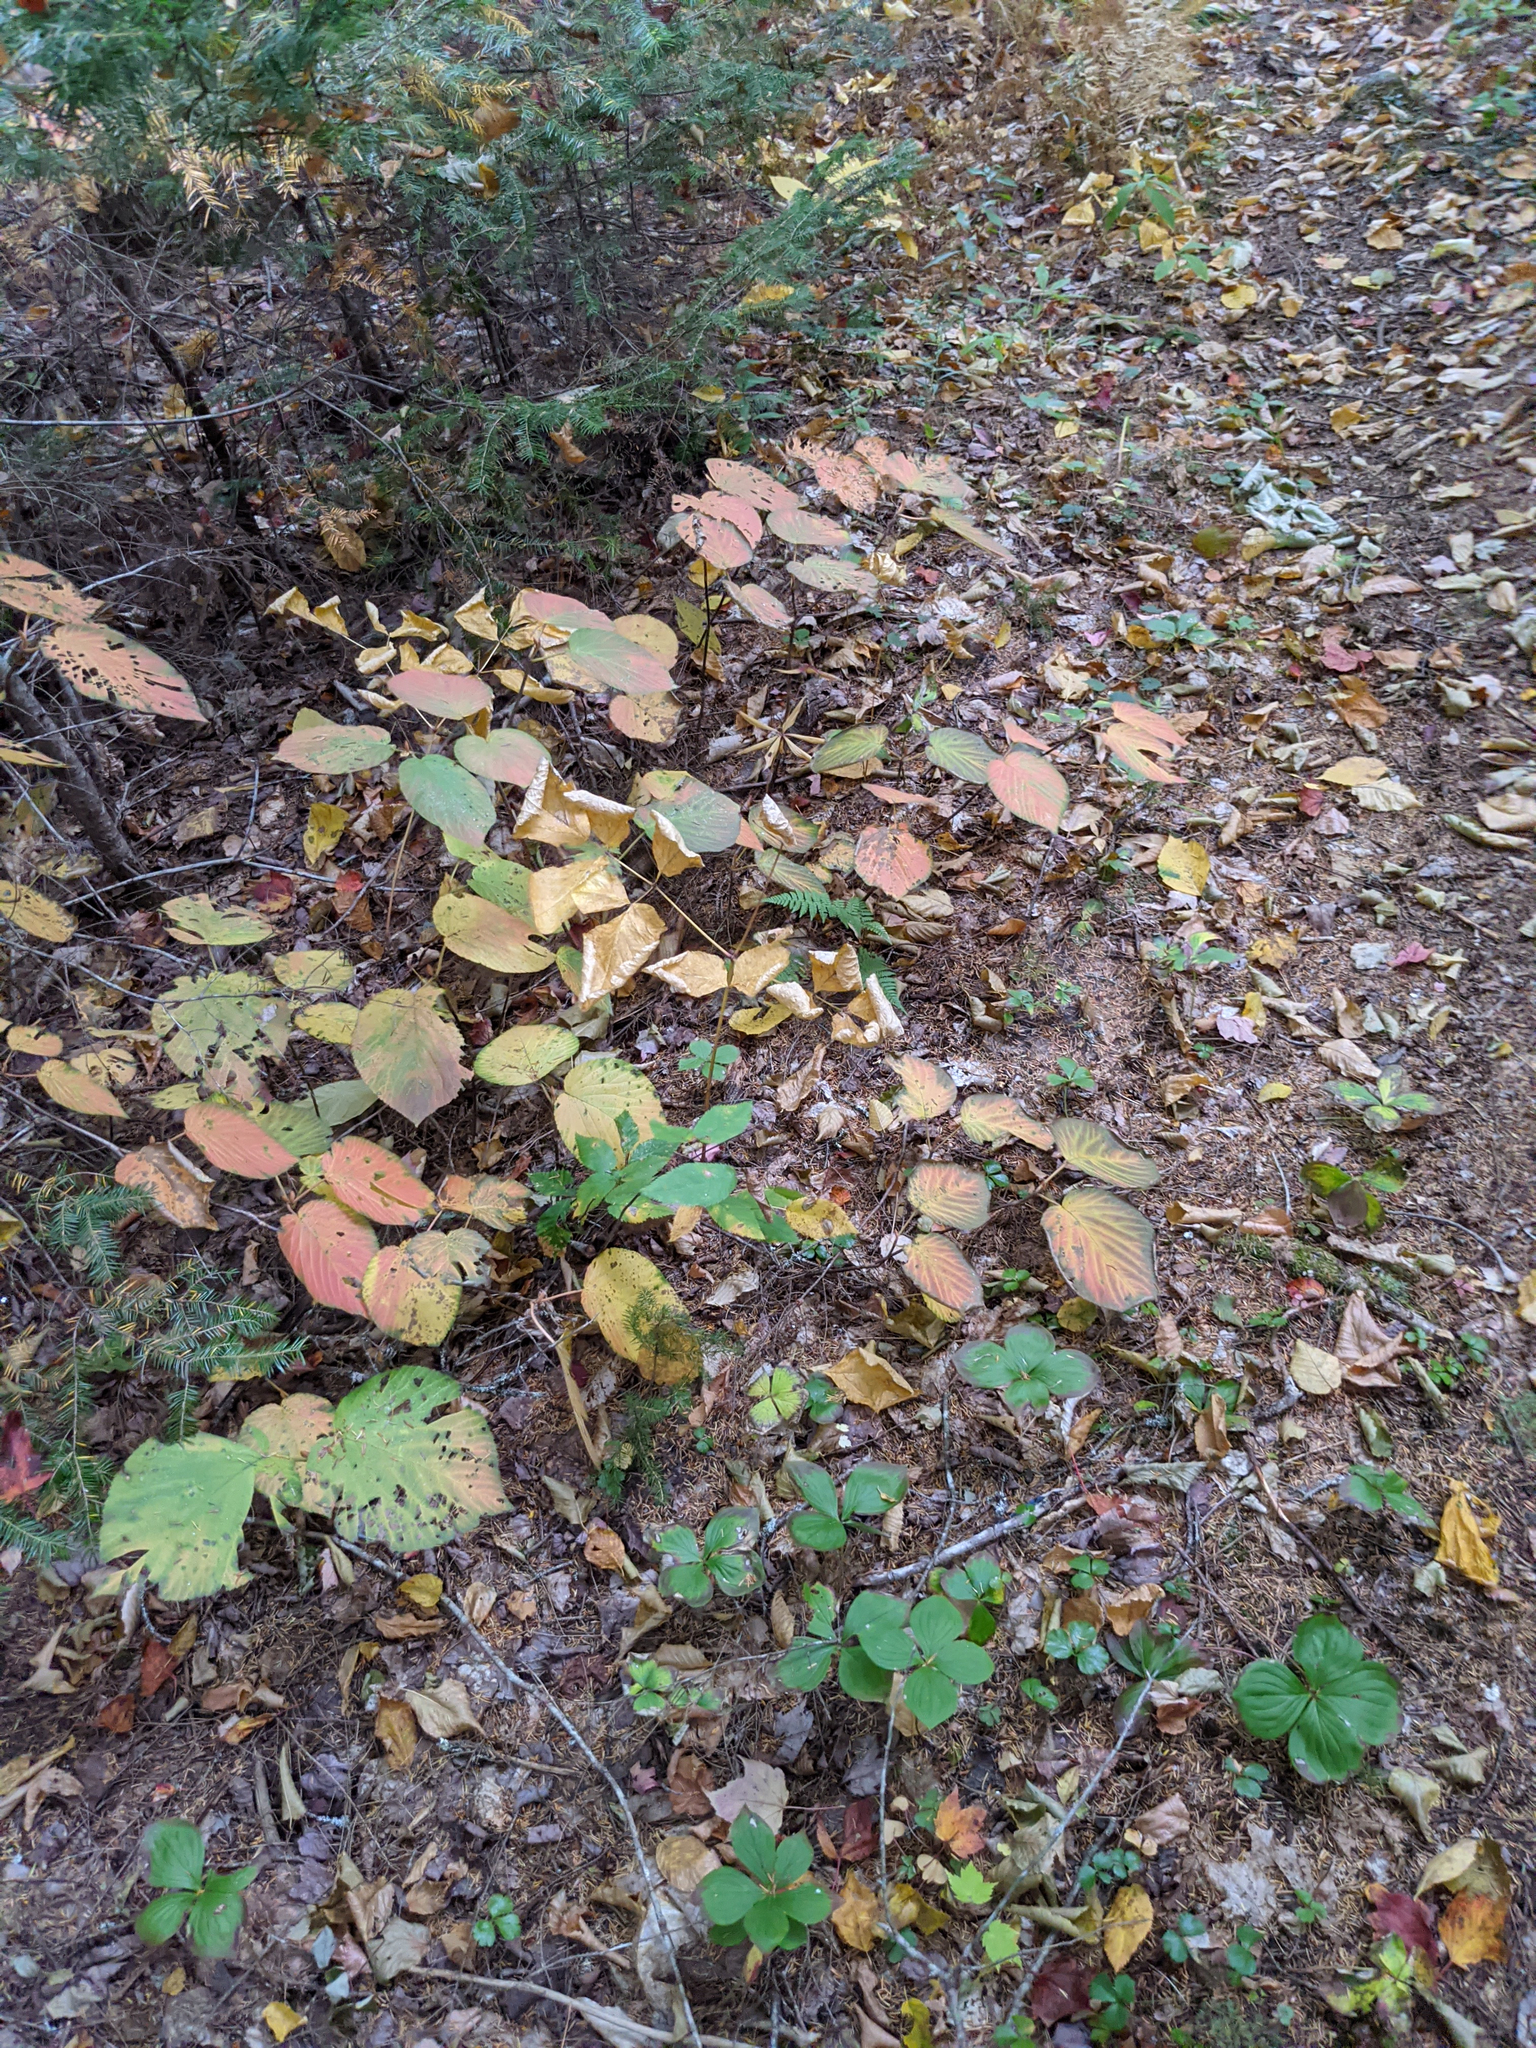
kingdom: Plantae
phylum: Tracheophyta
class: Magnoliopsida
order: Dipsacales
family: Viburnaceae
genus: Viburnum
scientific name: Viburnum lantanoides
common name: Hobblebush
